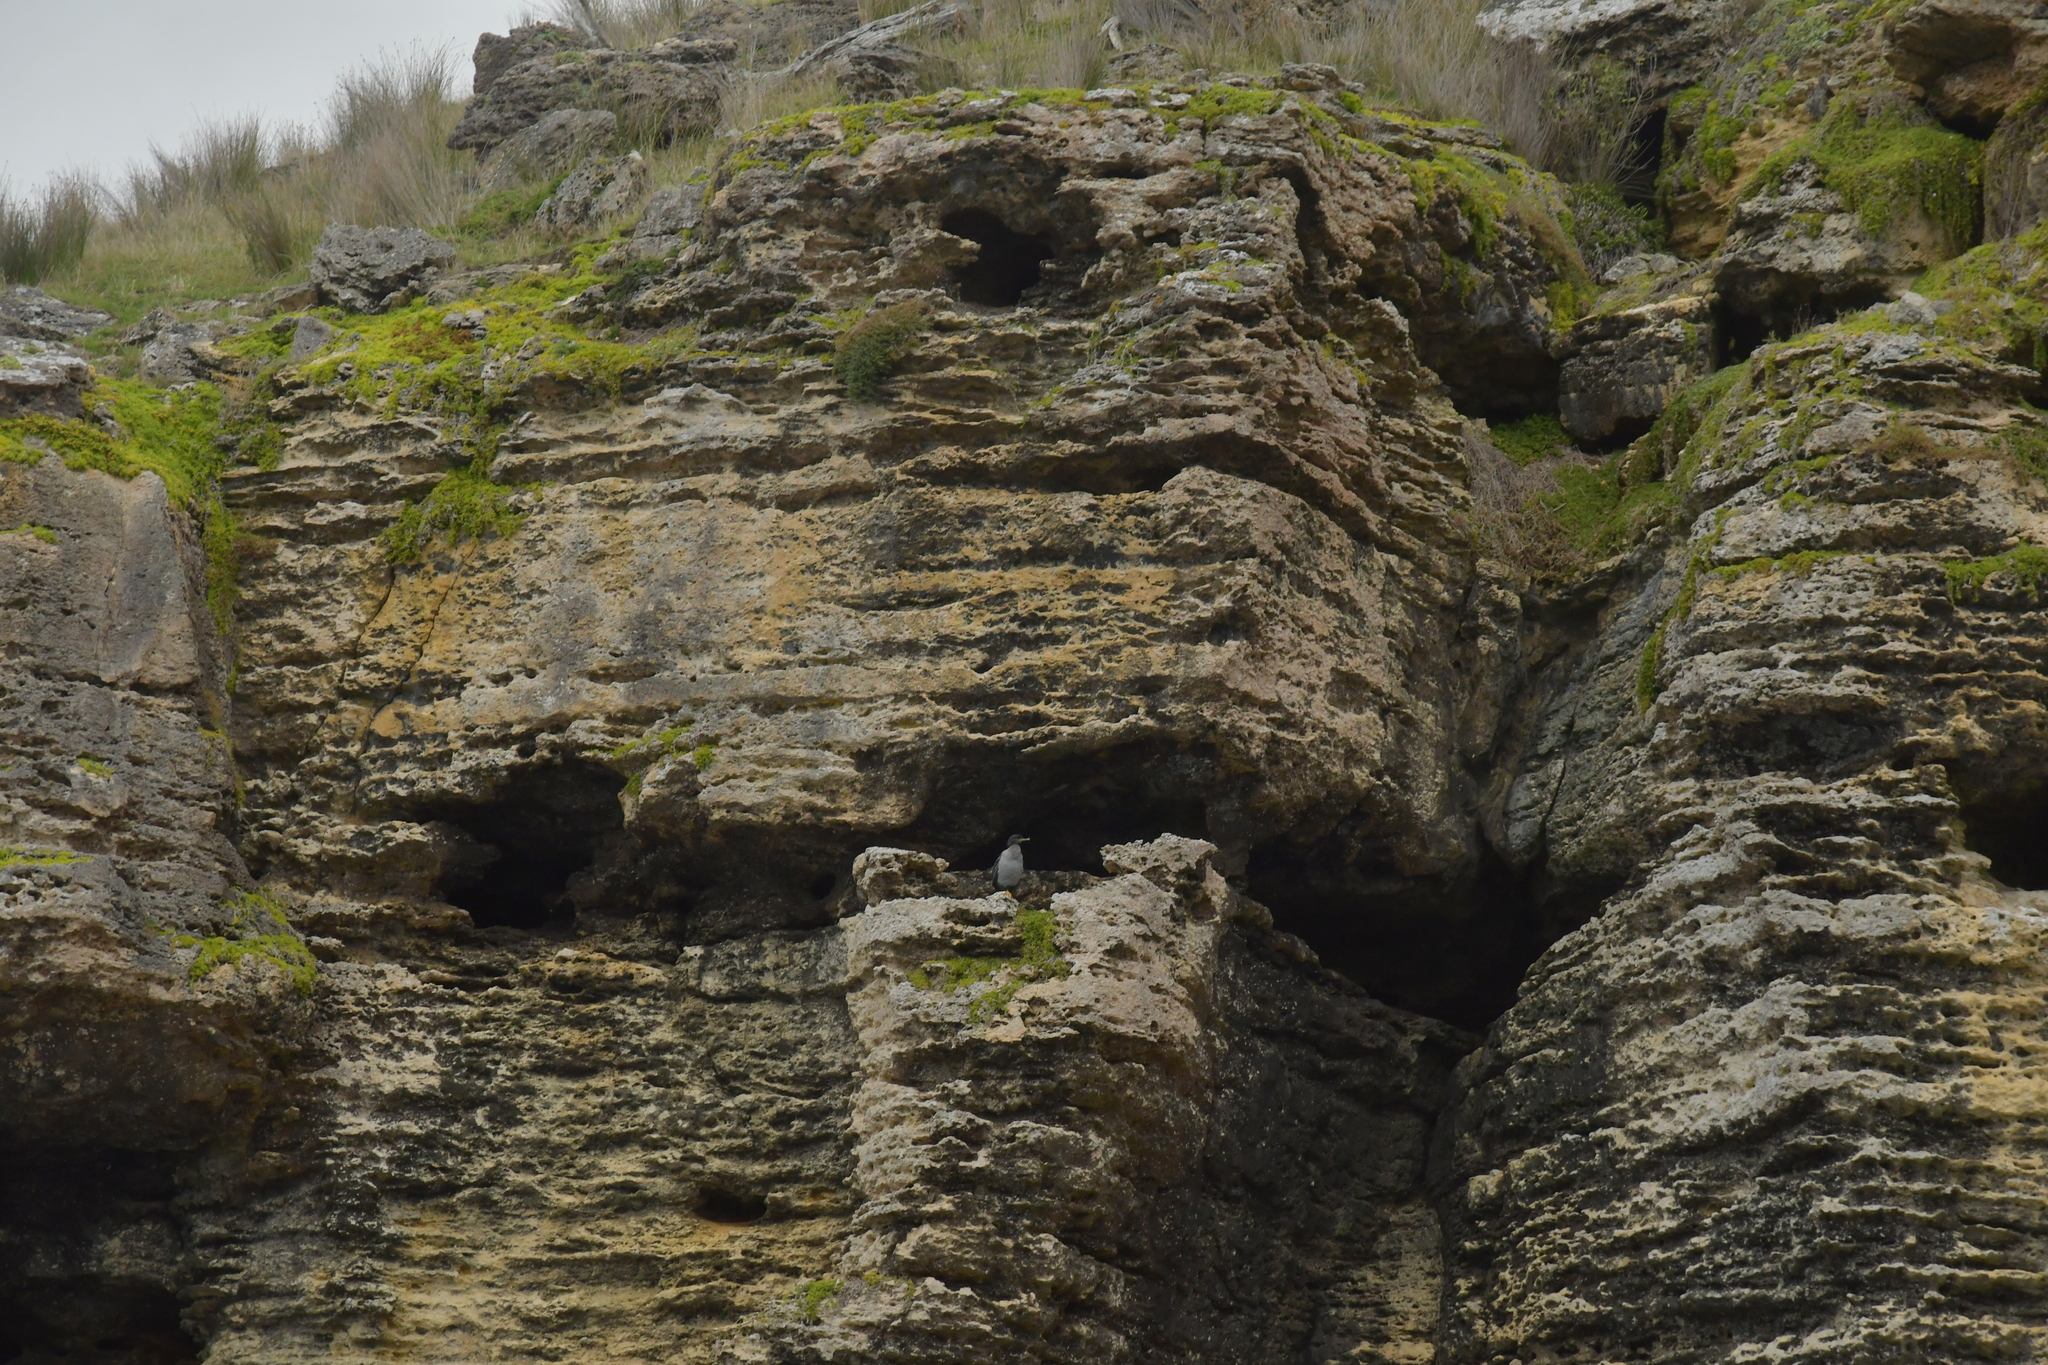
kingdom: Animalia
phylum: Chordata
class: Aves
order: Suliformes
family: Phalacrocoracidae
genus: Phalacrocorax
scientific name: Phalacrocorax featherstoni
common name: Pitt shag
